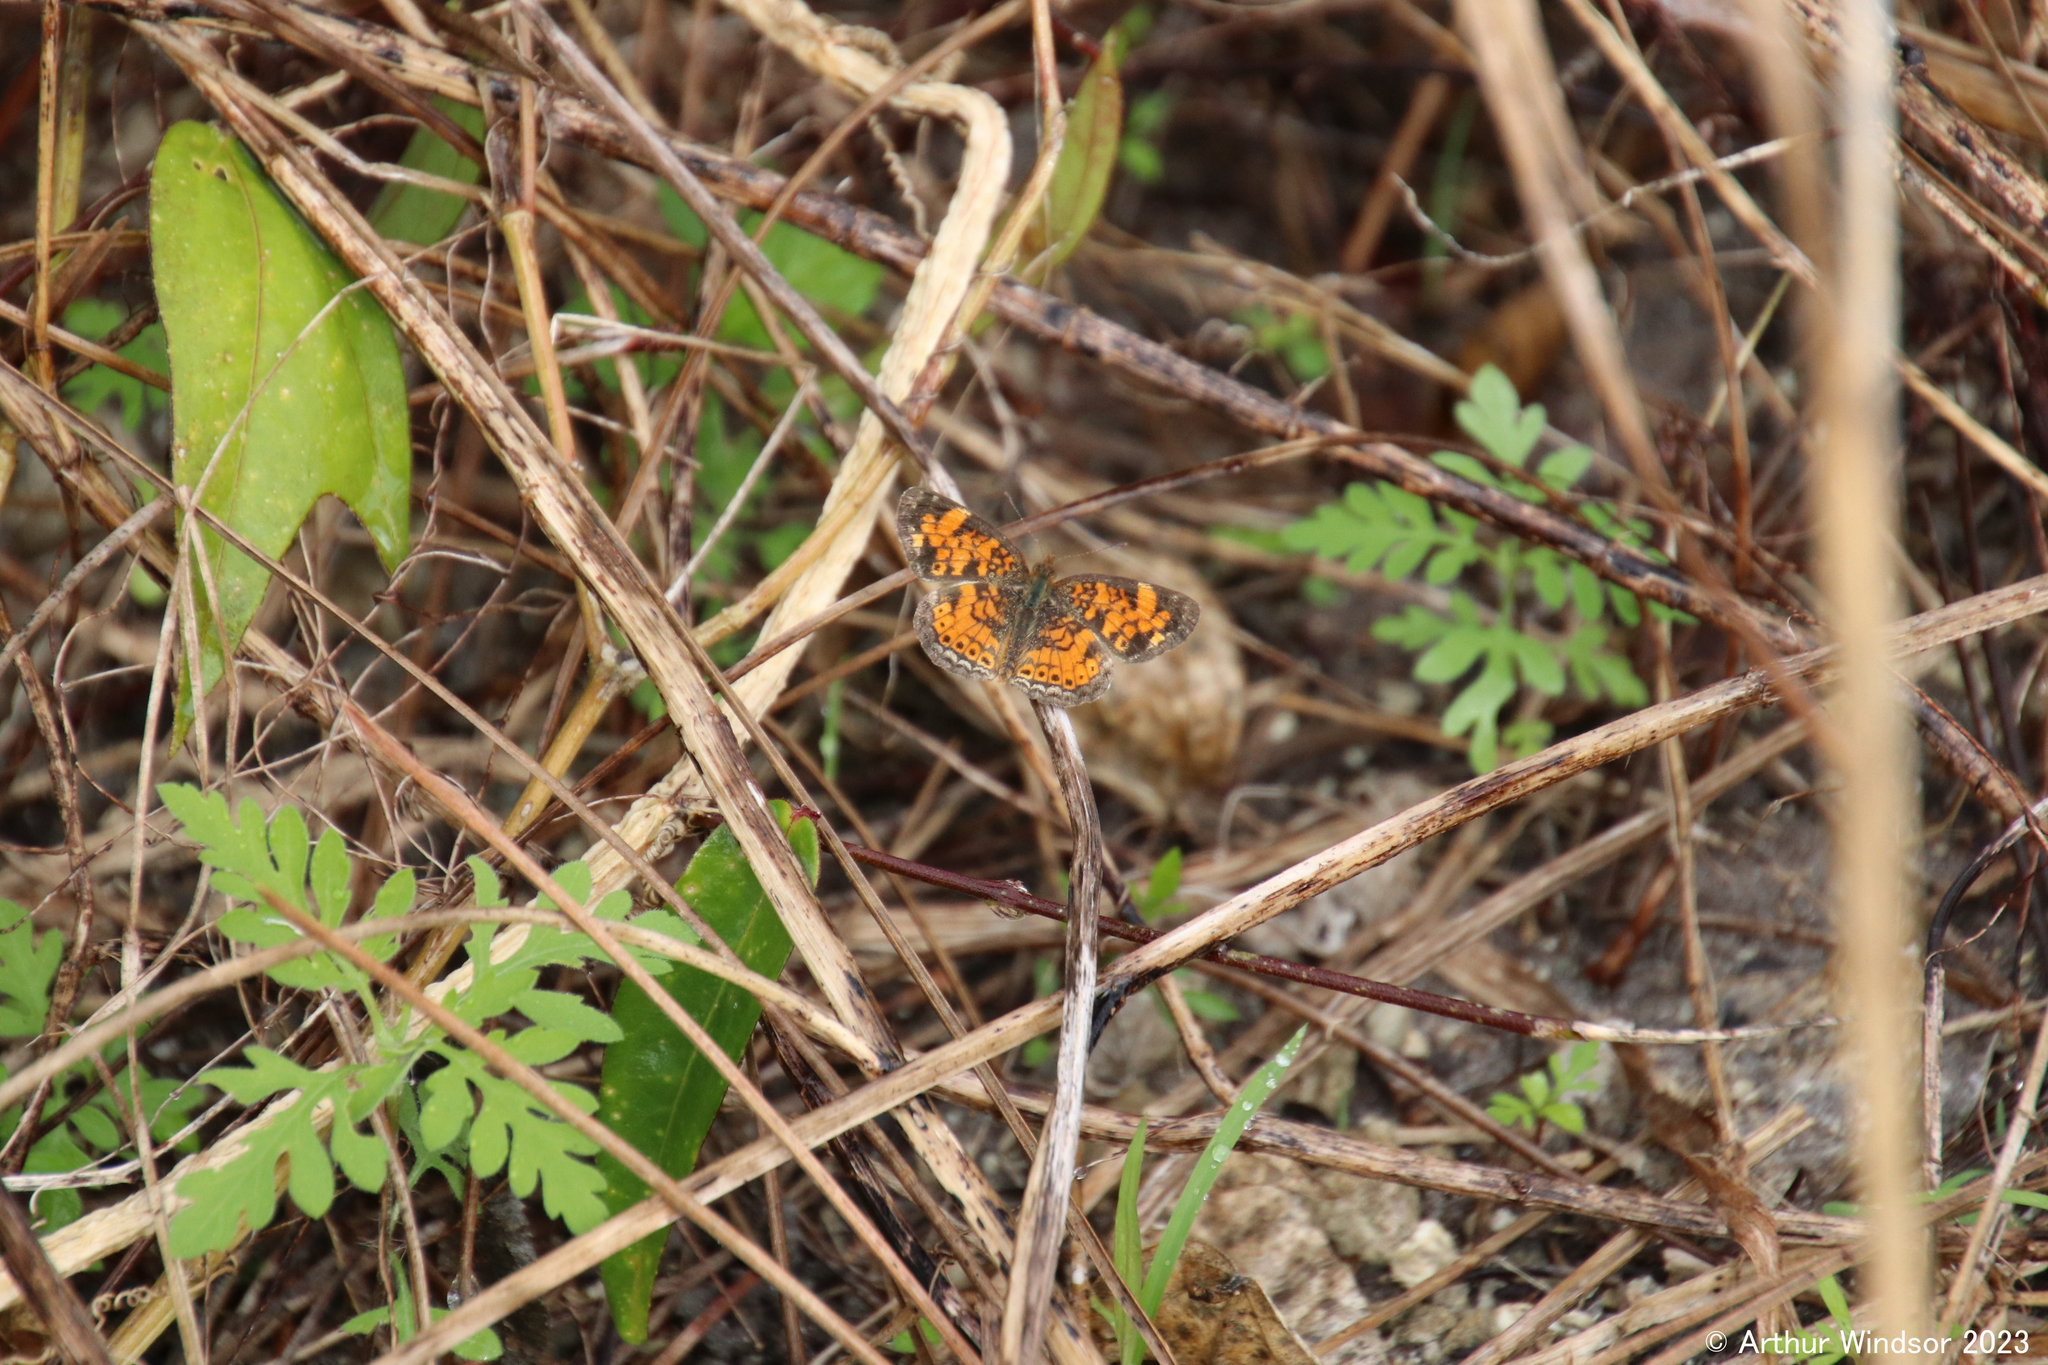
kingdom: Animalia
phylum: Arthropoda
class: Insecta
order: Lepidoptera
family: Nymphalidae
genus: Phyciodes
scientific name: Phyciodes tharos
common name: Pearl crescent
